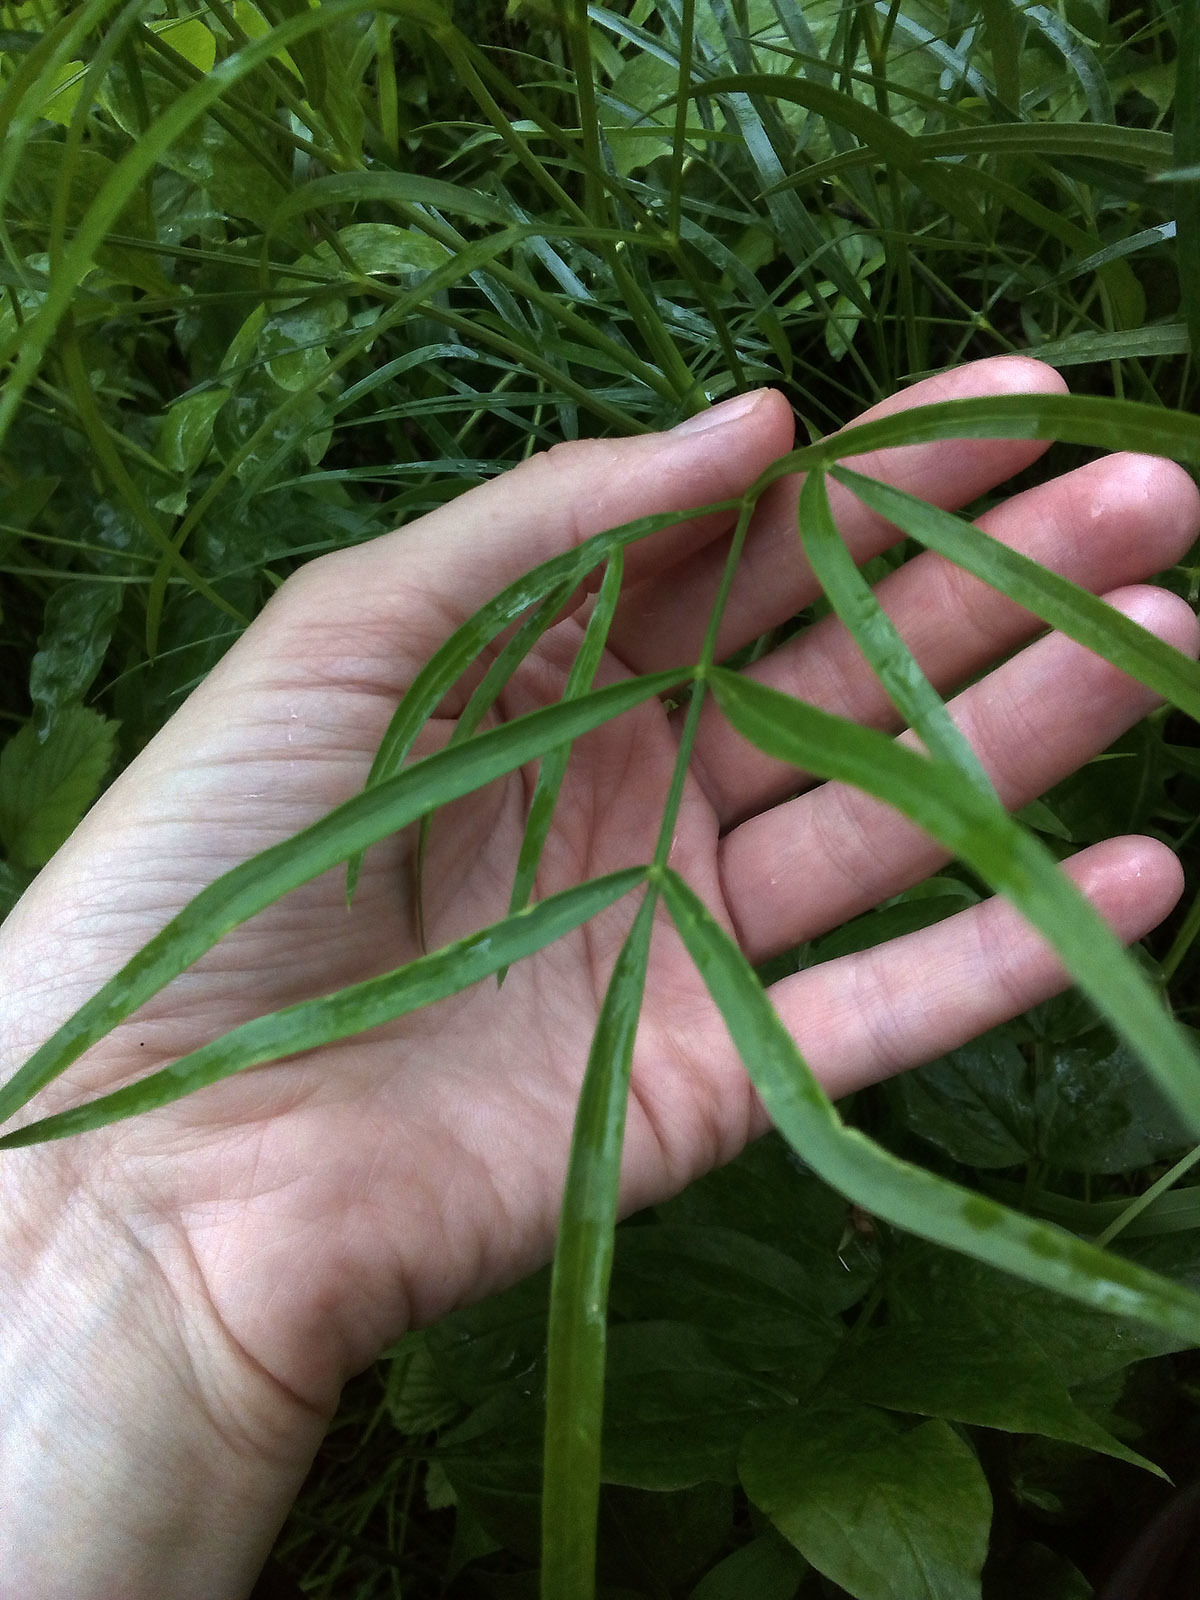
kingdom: Plantae
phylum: Tracheophyta
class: Magnoliopsida
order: Apiales
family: Apiaceae
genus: Peucedanum
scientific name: Peucedanum morisonii
